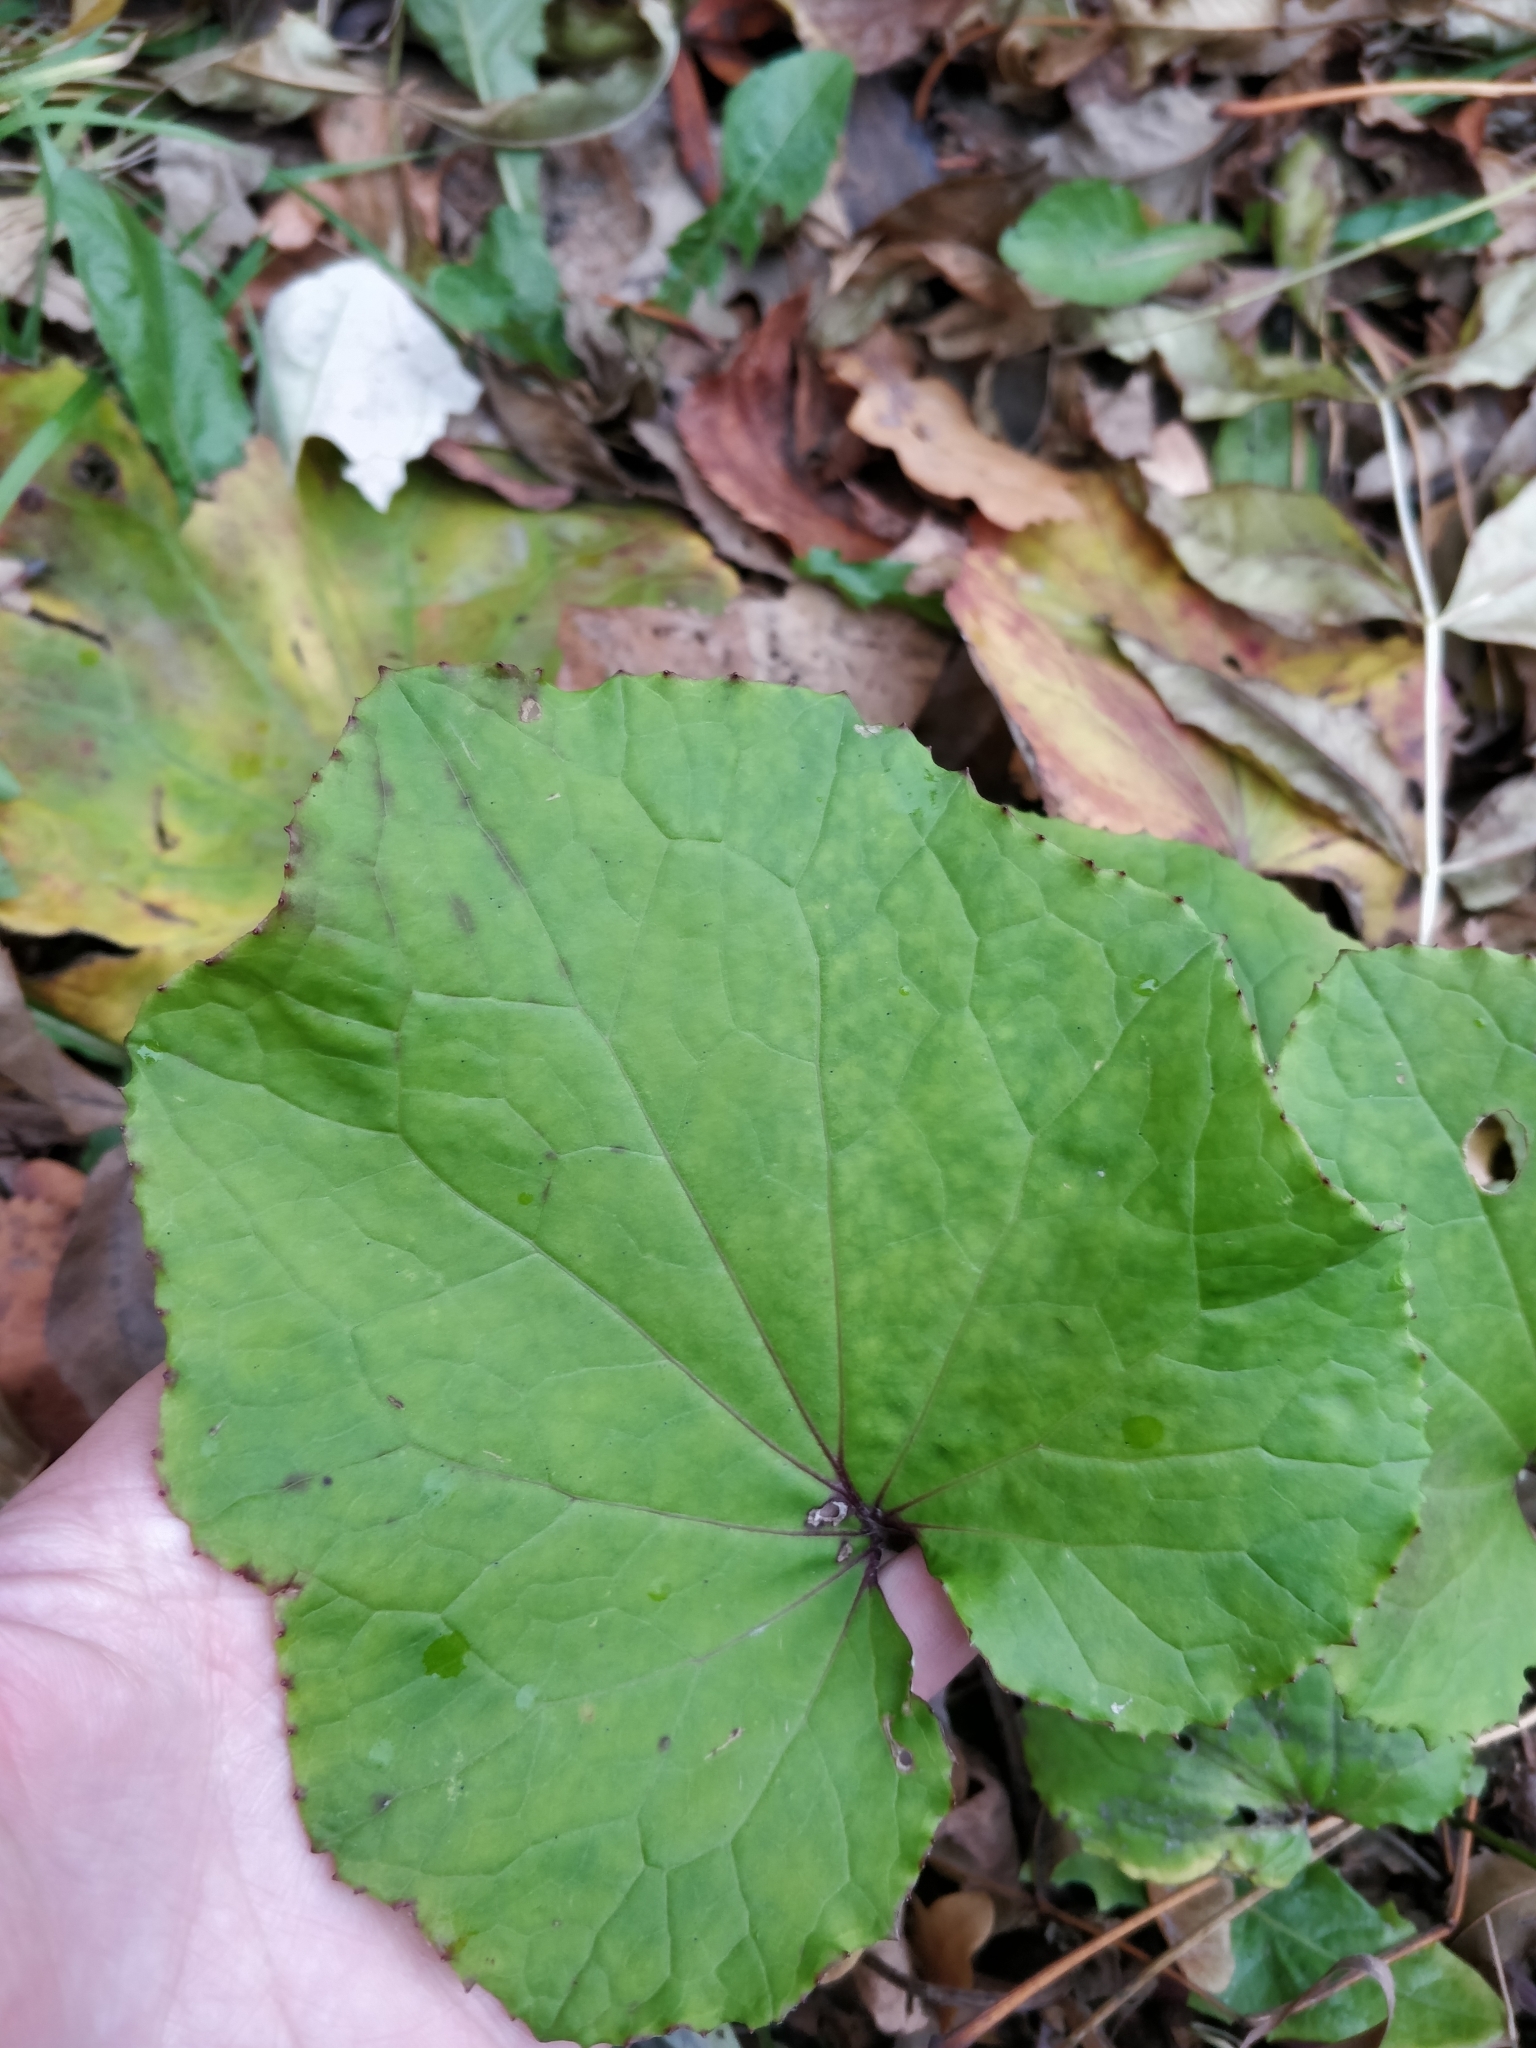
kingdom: Plantae
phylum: Tracheophyta
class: Magnoliopsida
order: Asterales
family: Asteraceae
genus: Tussilago
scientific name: Tussilago farfara
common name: Coltsfoot
